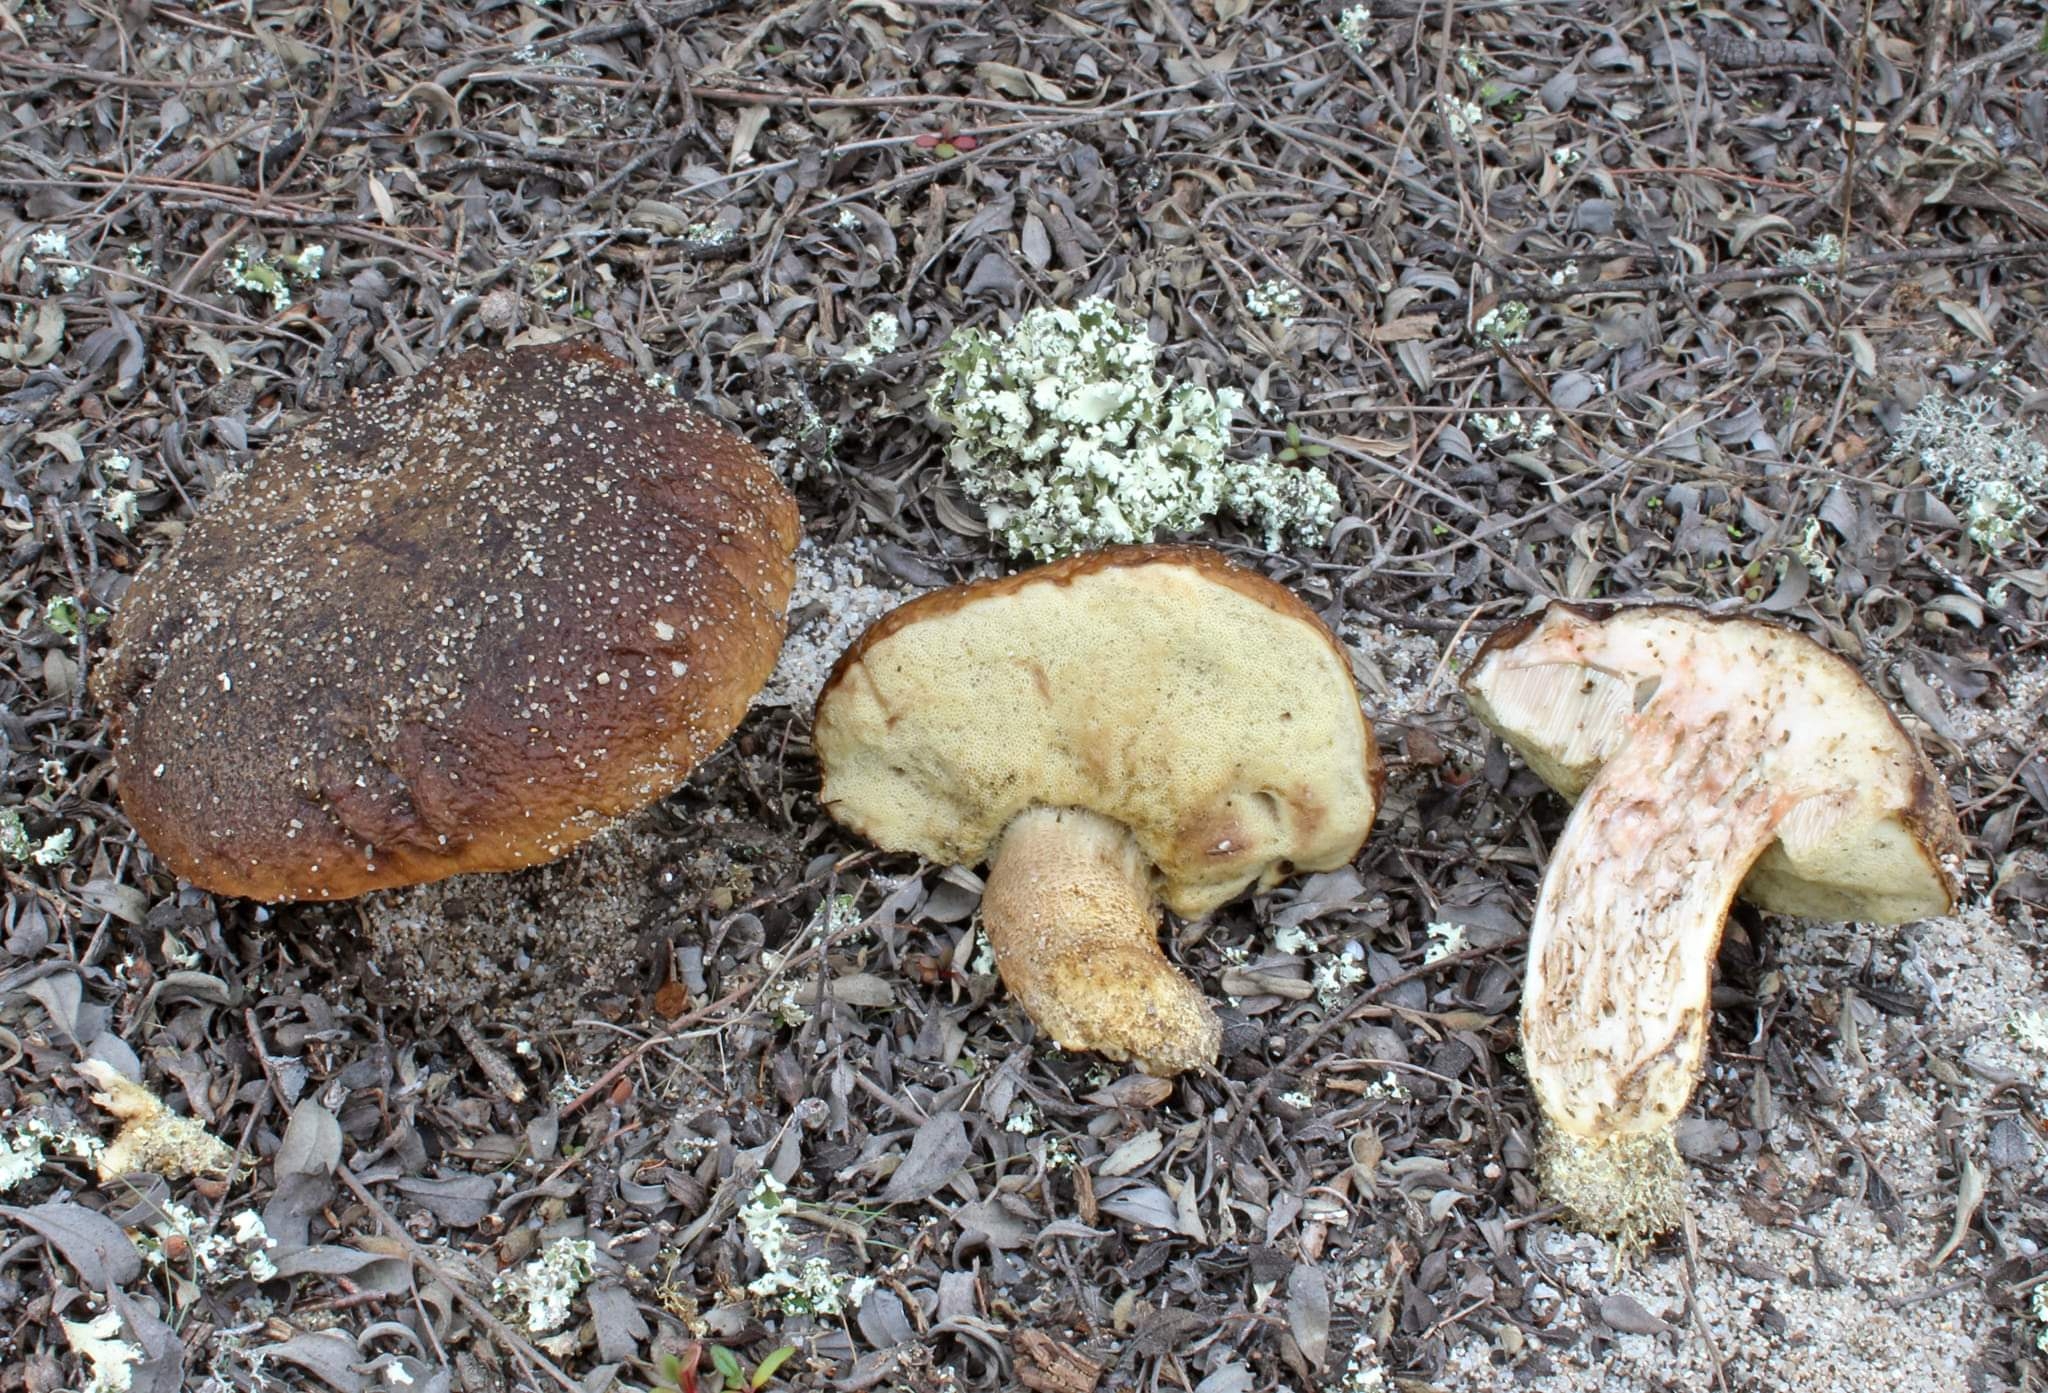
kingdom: Fungi
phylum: Basidiomycota
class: Agaricomycetes
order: Boletales
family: Boletaceae
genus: Leccinellum
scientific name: Leccinellum
